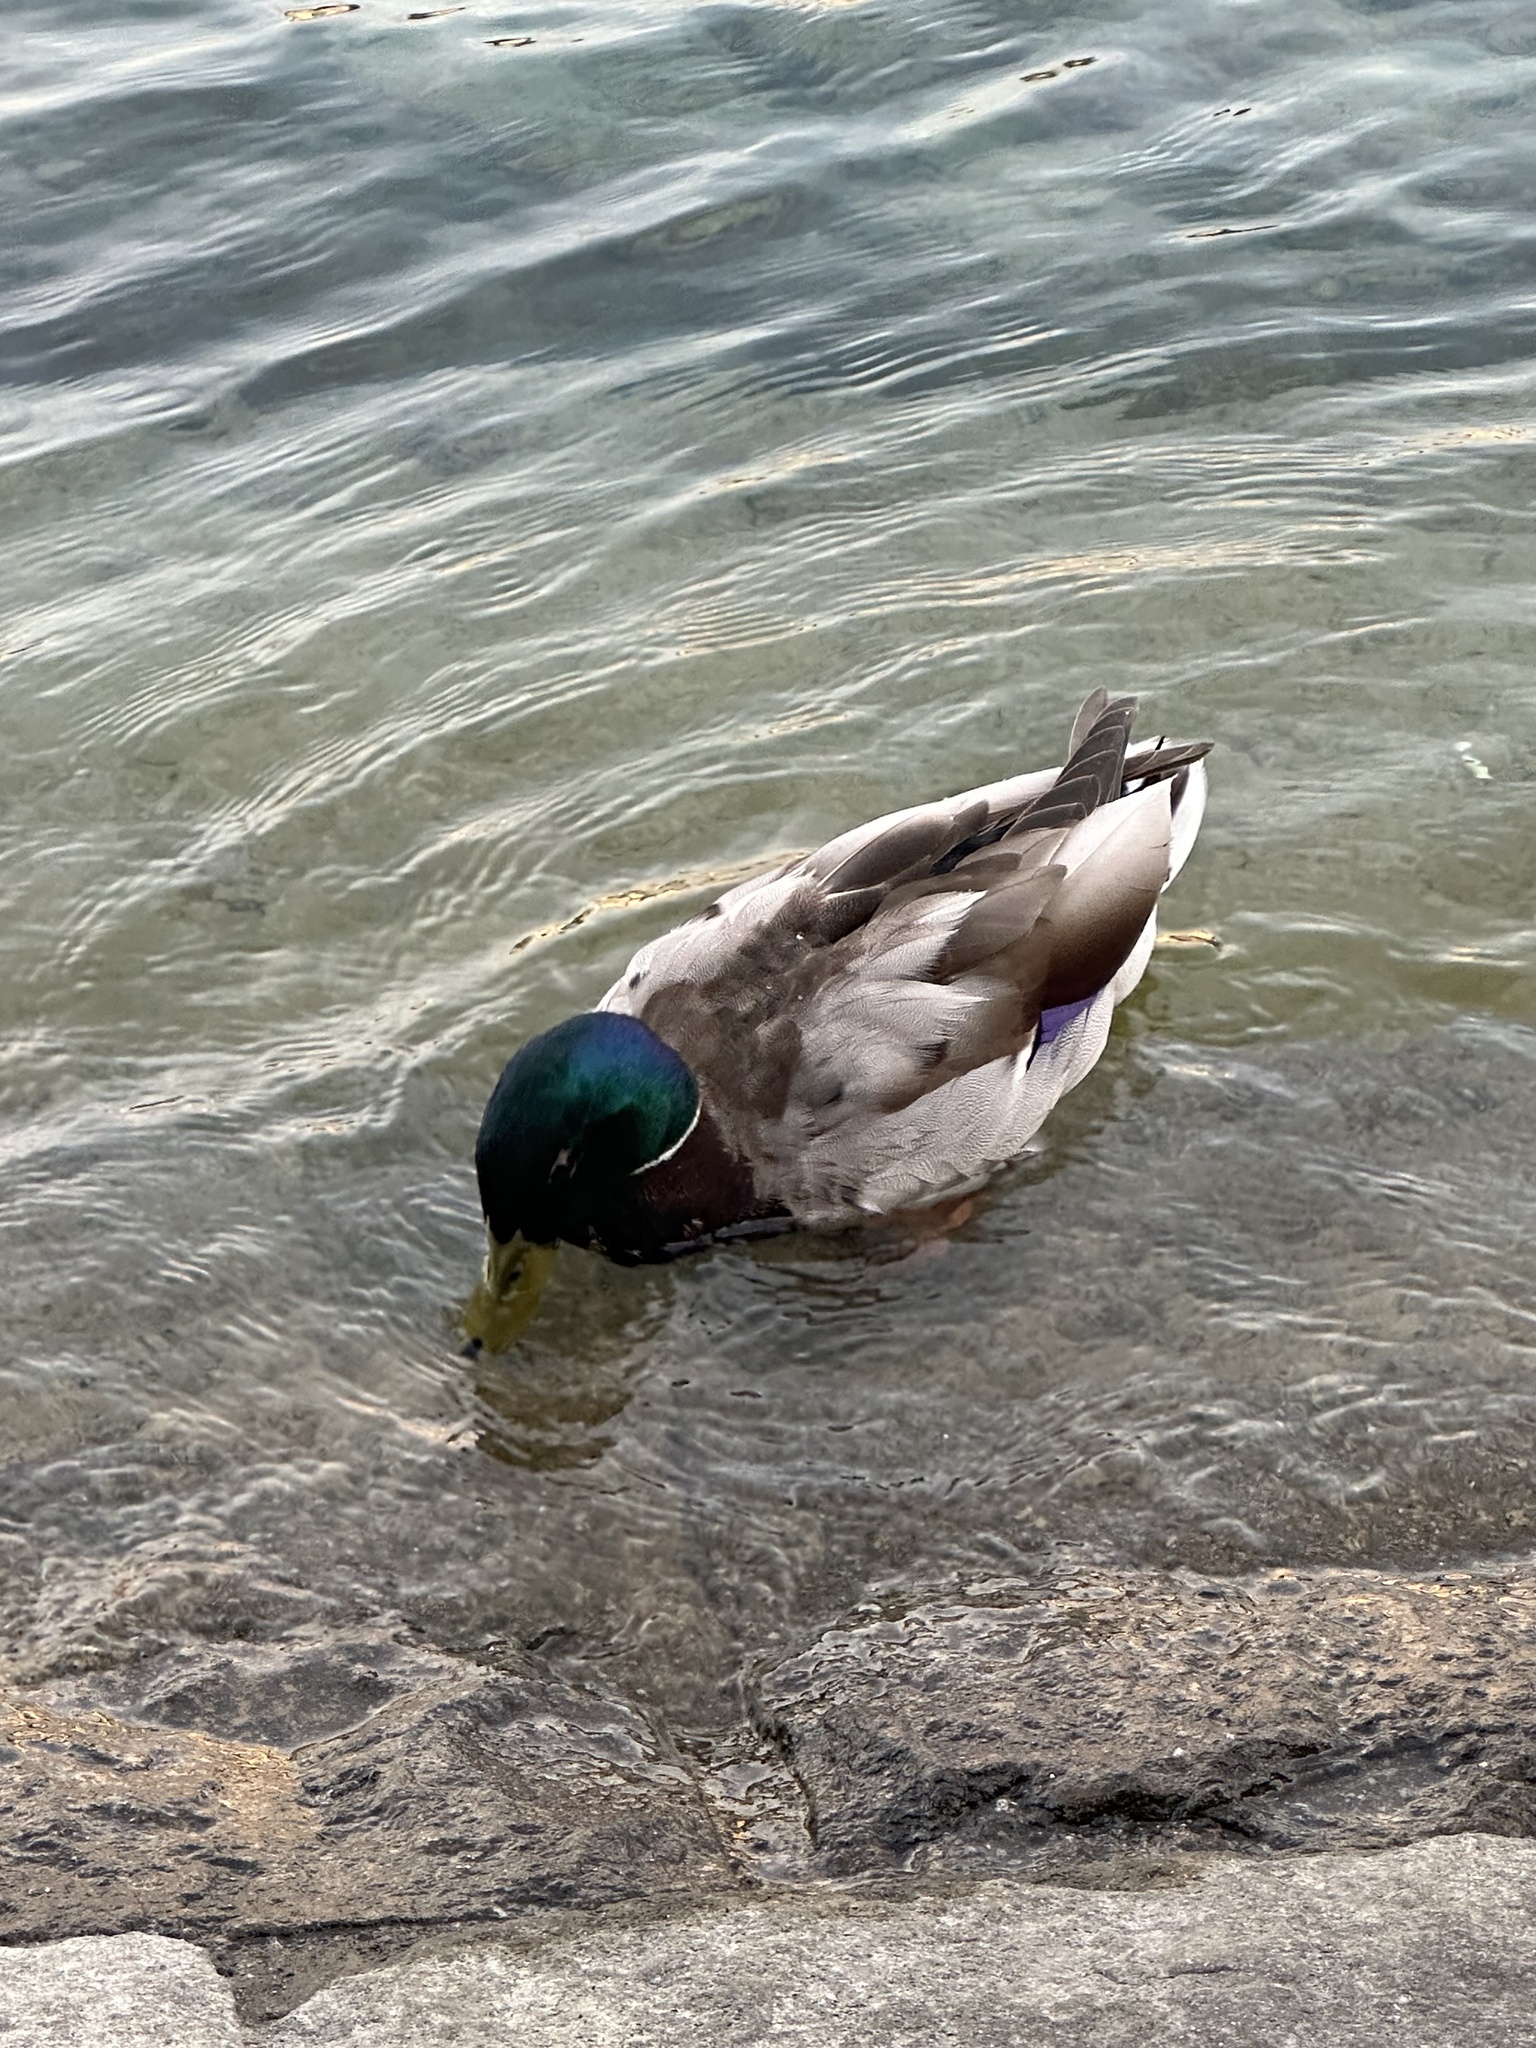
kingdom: Animalia
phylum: Chordata
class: Aves
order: Anseriformes
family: Anatidae
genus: Anas
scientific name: Anas platyrhynchos
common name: Mallard
